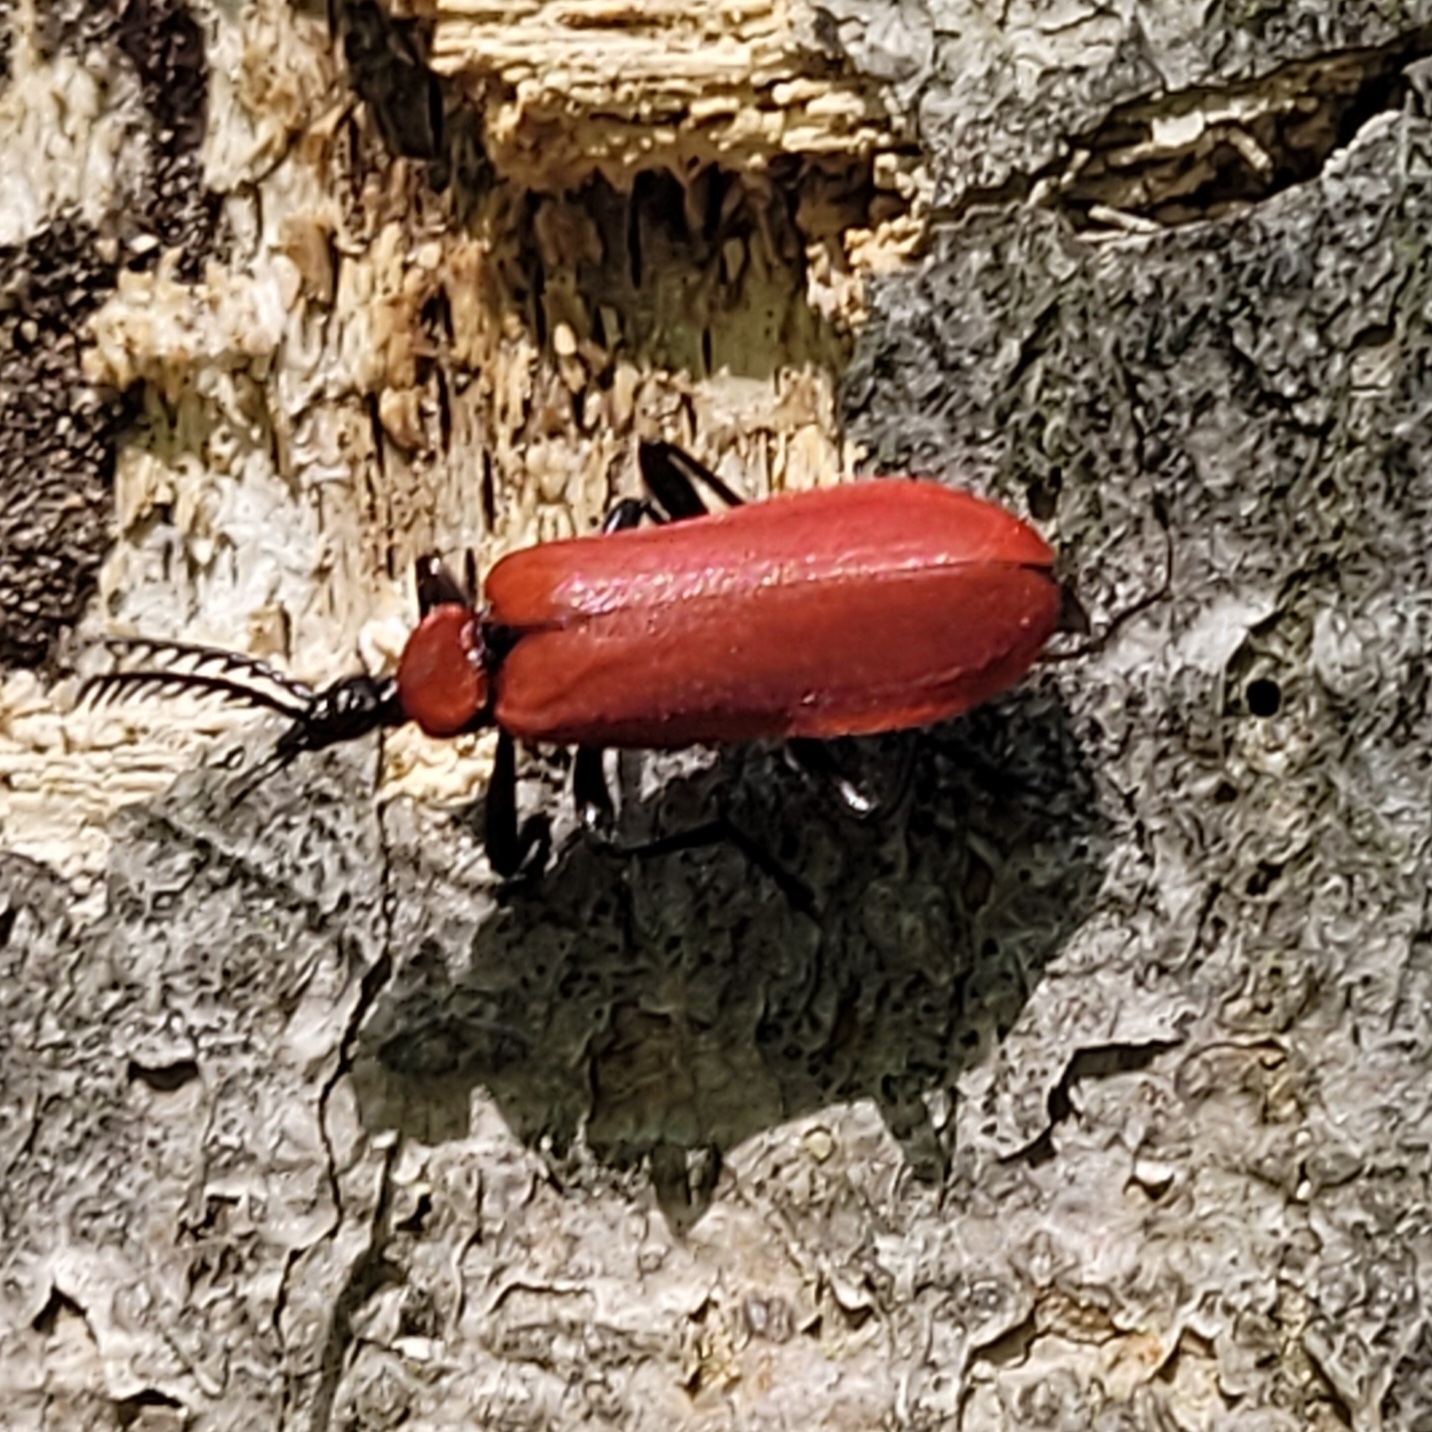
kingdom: Animalia
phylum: Arthropoda
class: Insecta
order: Coleoptera
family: Pyrochroidae
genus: Pyrochroa
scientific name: Pyrochroa coccinea
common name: Black-headed cardinal beetle
